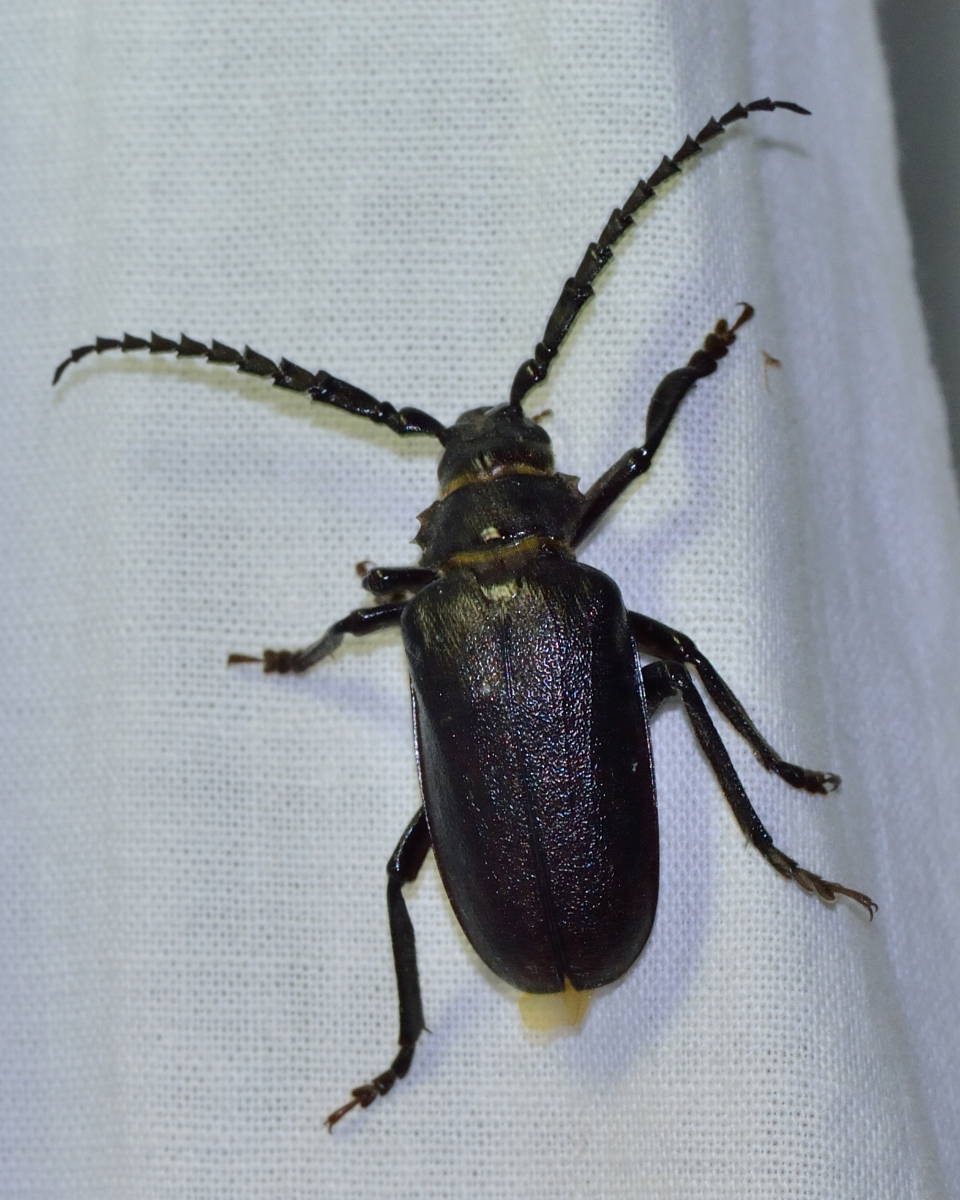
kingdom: Animalia
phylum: Arthropoda
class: Insecta
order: Coleoptera
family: Cerambycidae
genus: Prionus
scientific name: Prionus coriarius
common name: Tanner beetle
